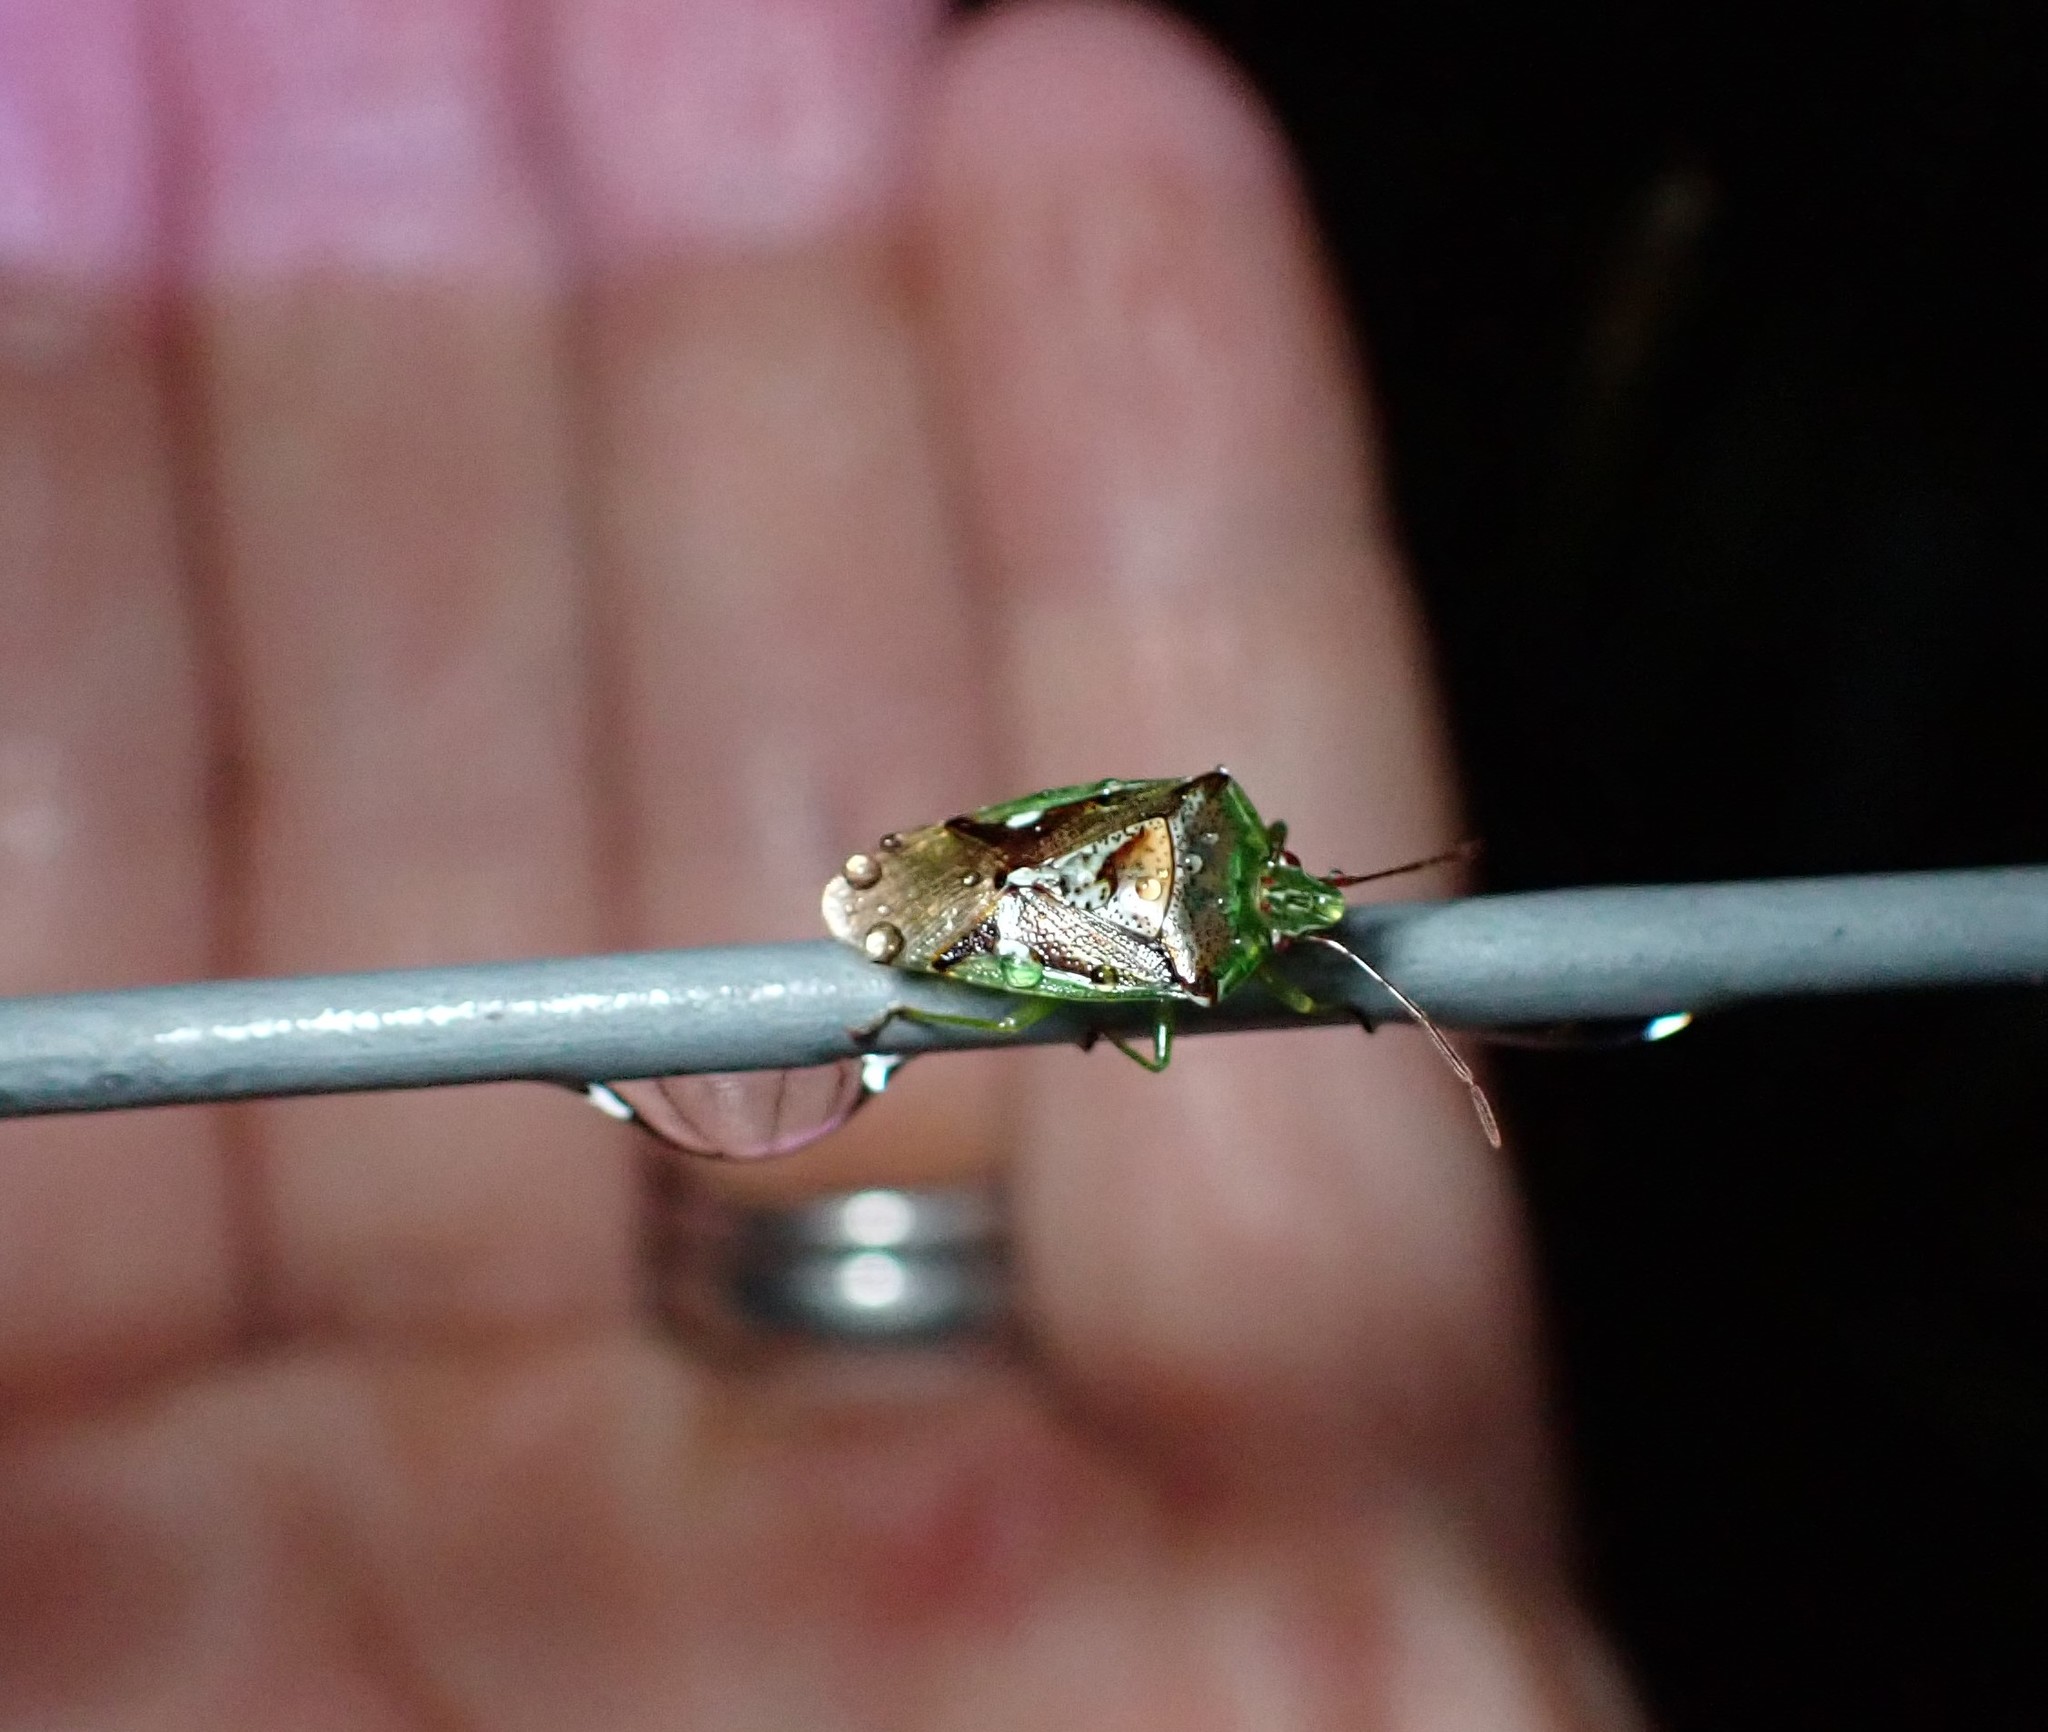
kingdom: Animalia
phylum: Arthropoda
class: Insecta
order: Hemiptera
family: Acanthosomatidae
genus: Oncacontias
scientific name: Oncacontias vittatus
